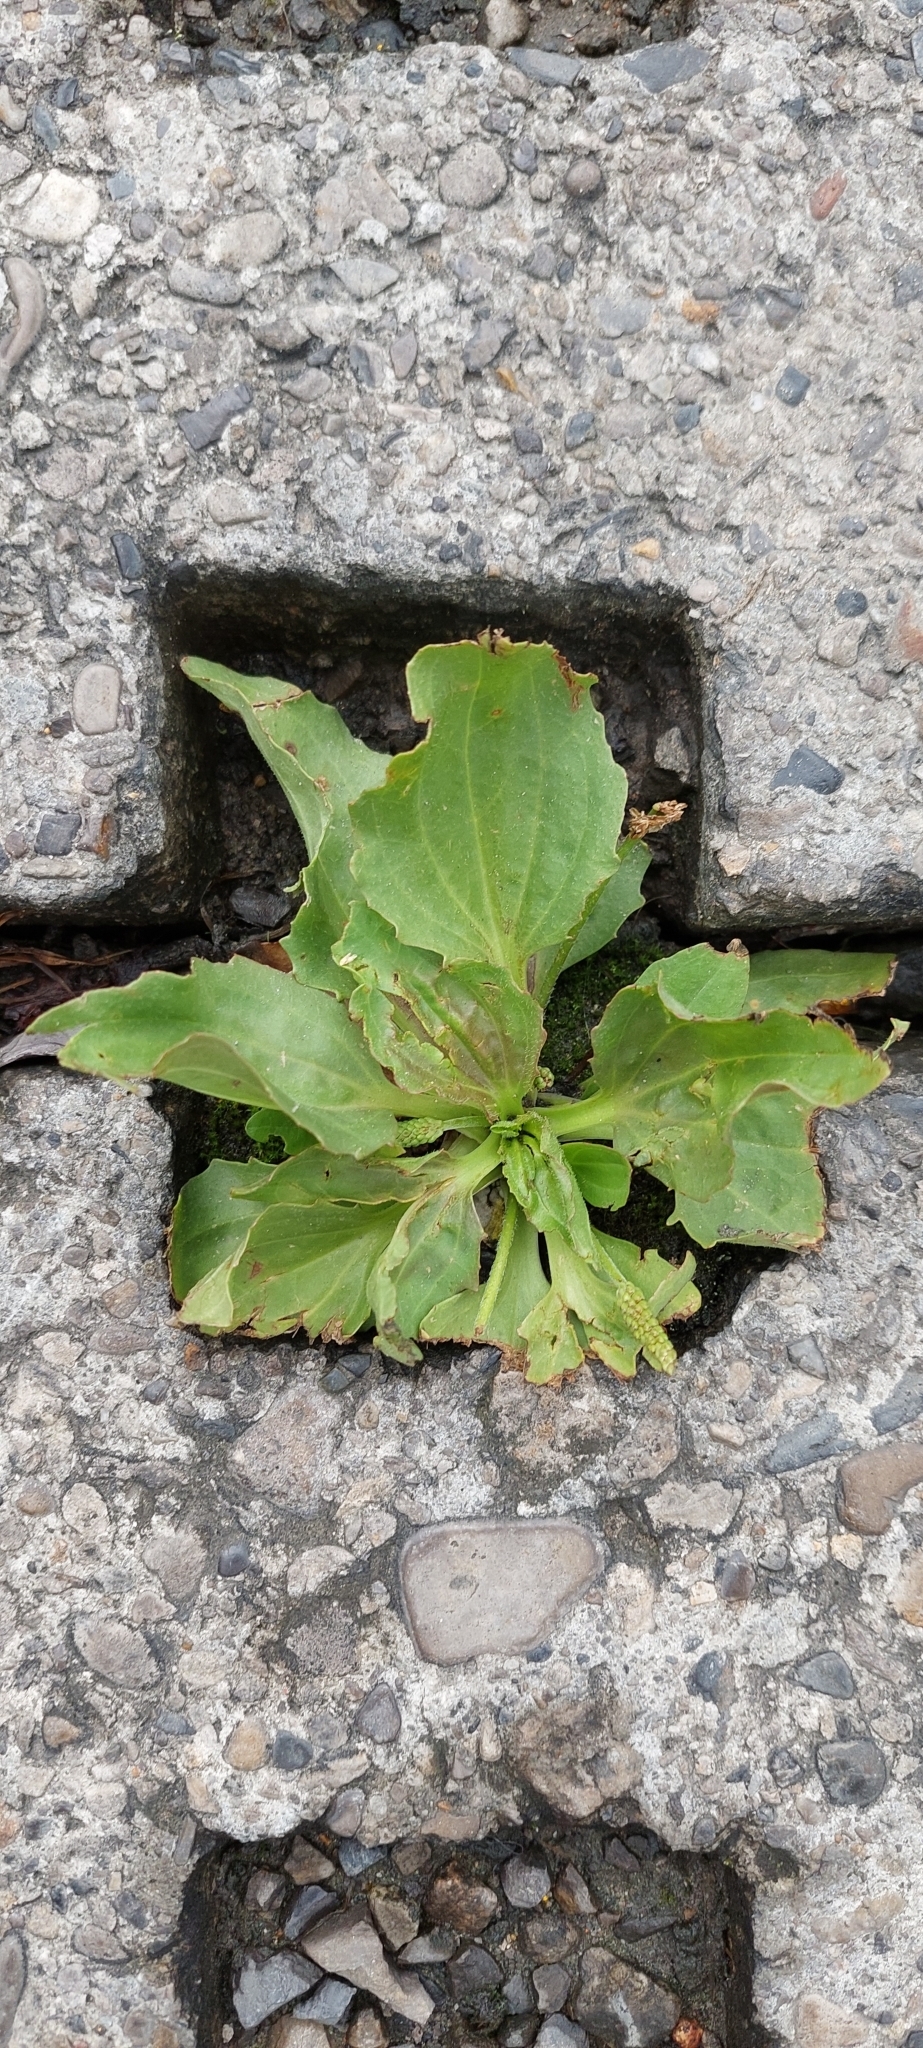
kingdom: Plantae
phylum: Tracheophyta
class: Magnoliopsida
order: Lamiales
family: Plantaginaceae
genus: Plantago
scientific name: Plantago major
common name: Common plantain
